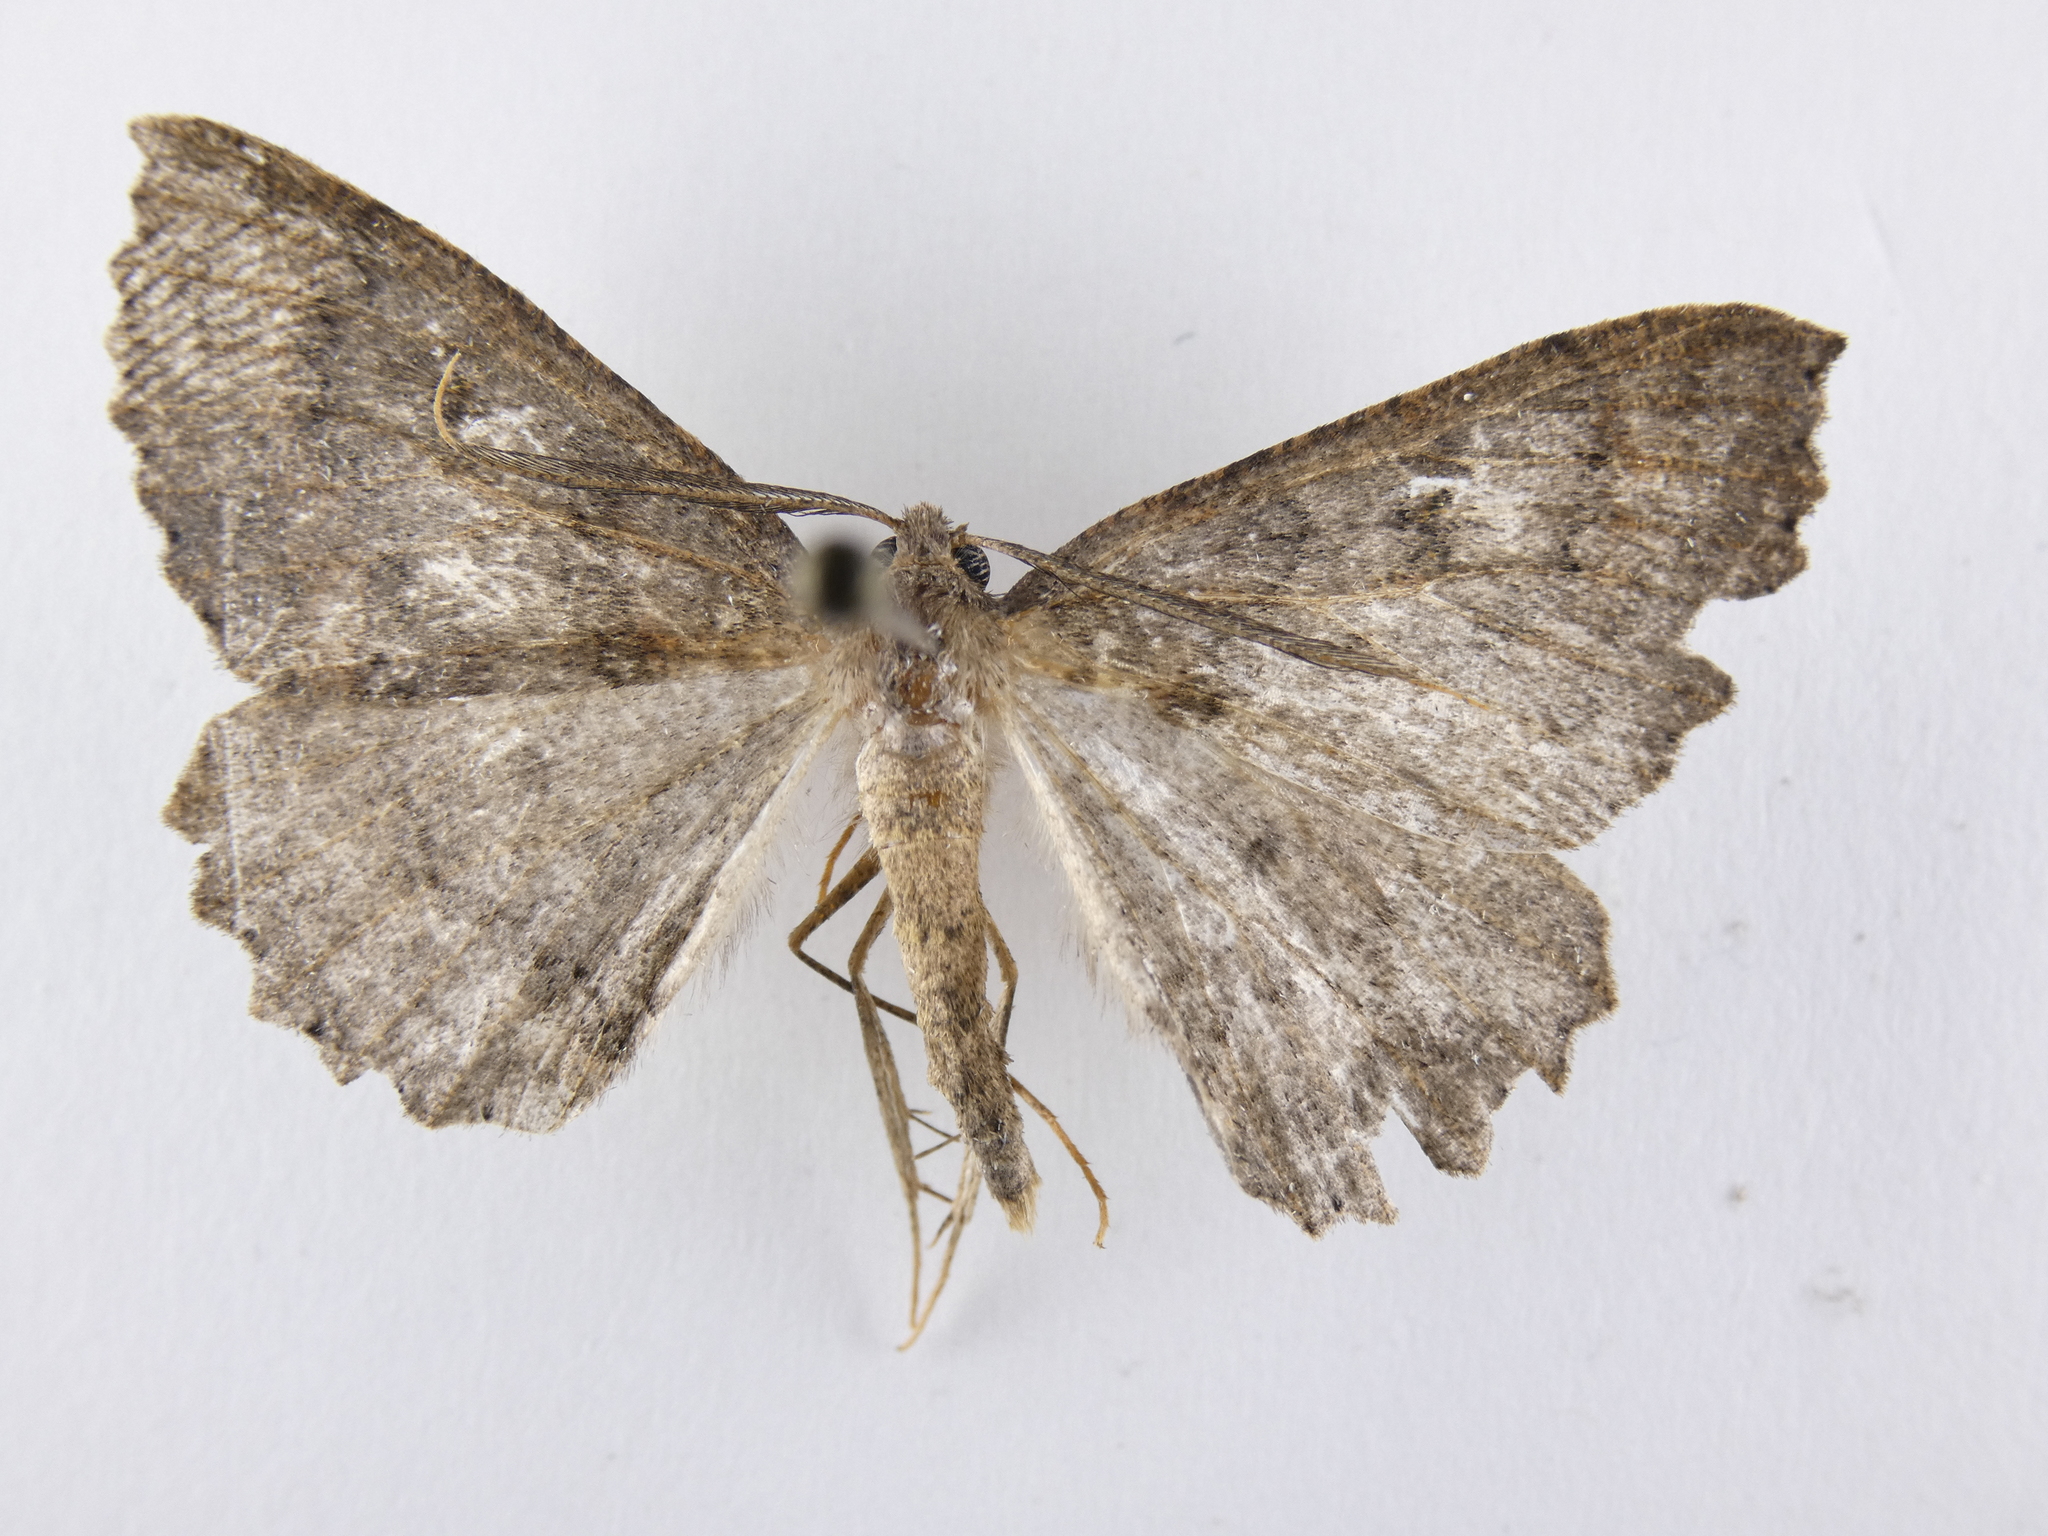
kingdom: Animalia
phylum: Arthropoda
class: Insecta
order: Lepidoptera
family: Geometridae
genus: Cleora
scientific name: Cleora scriptaria
